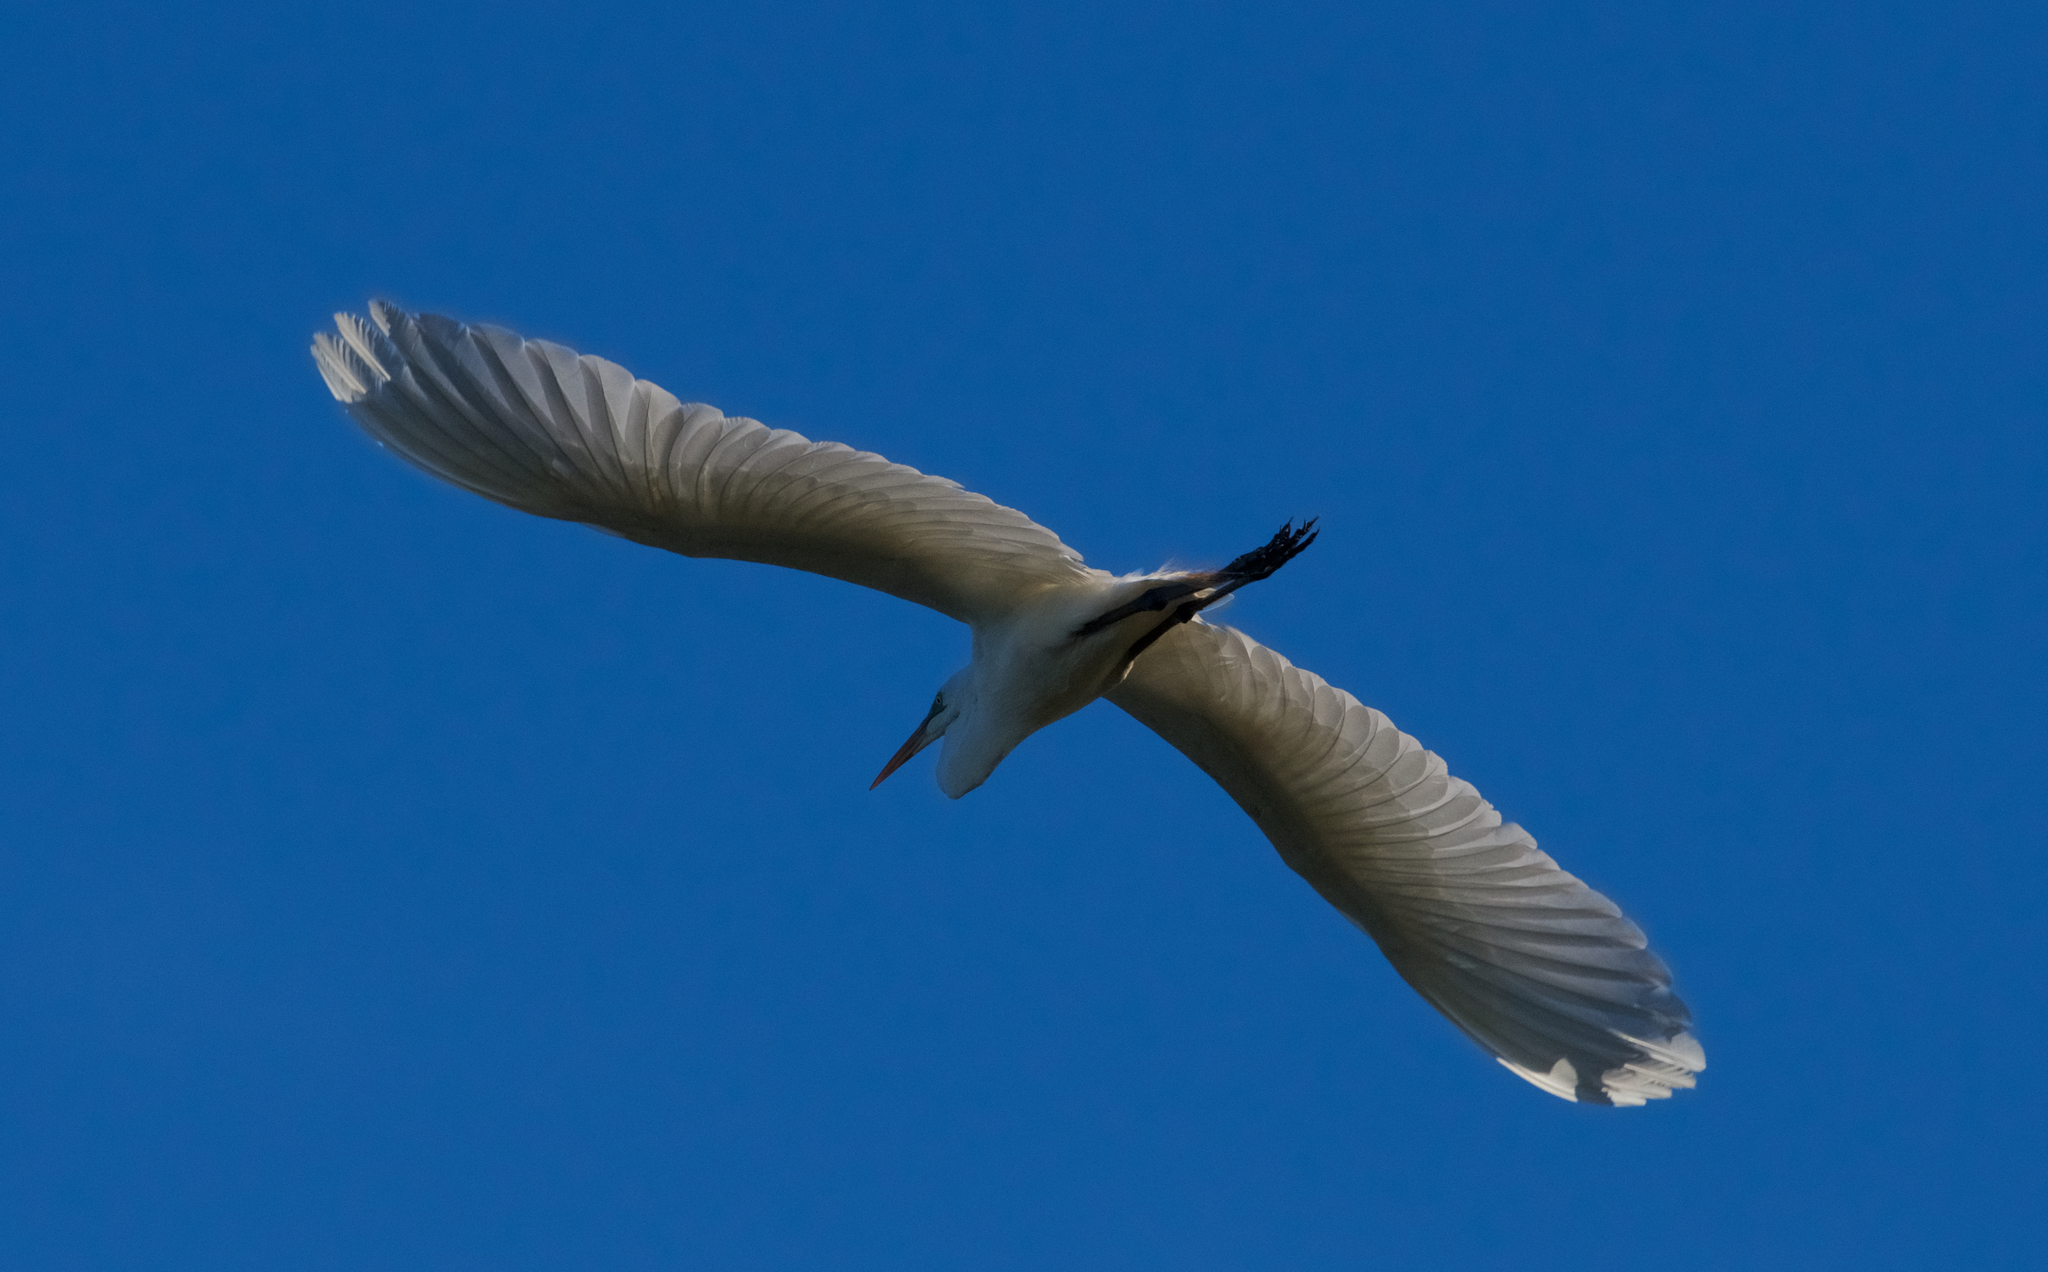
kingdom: Animalia
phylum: Chordata
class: Aves
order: Pelecaniformes
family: Ardeidae
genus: Ardea
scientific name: Ardea alba
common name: Great egret
